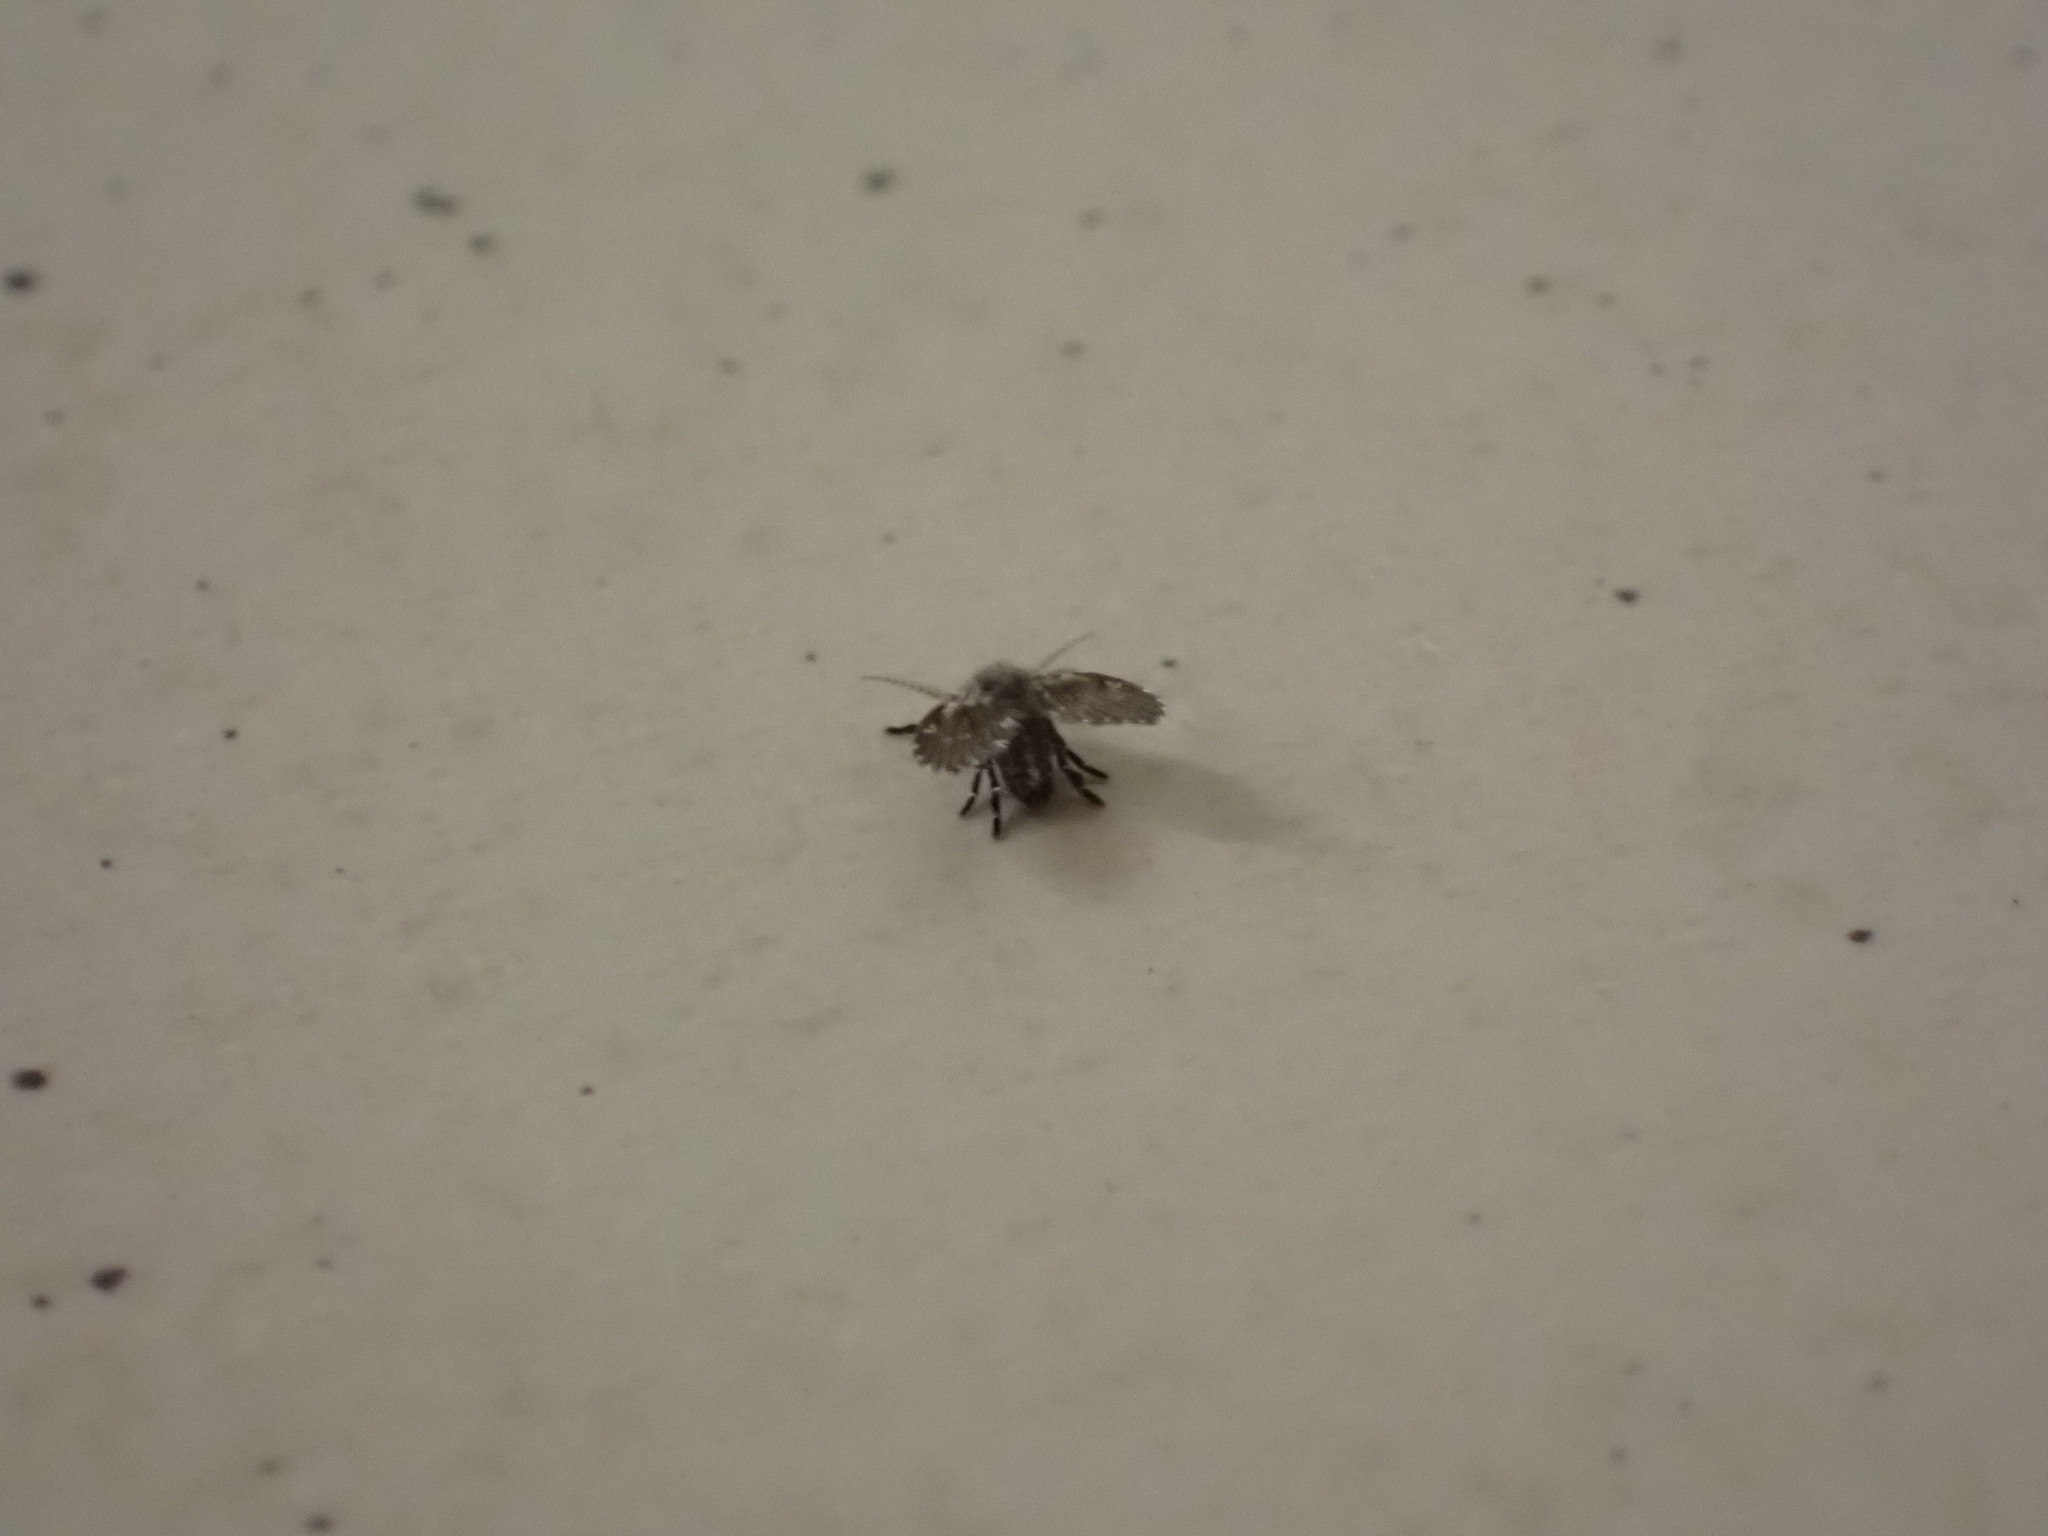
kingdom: Animalia
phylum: Arthropoda
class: Insecta
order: Diptera
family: Psychodidae
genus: Clogmia
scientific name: Clogmia albipunctatus
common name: White-spotted moth fly
